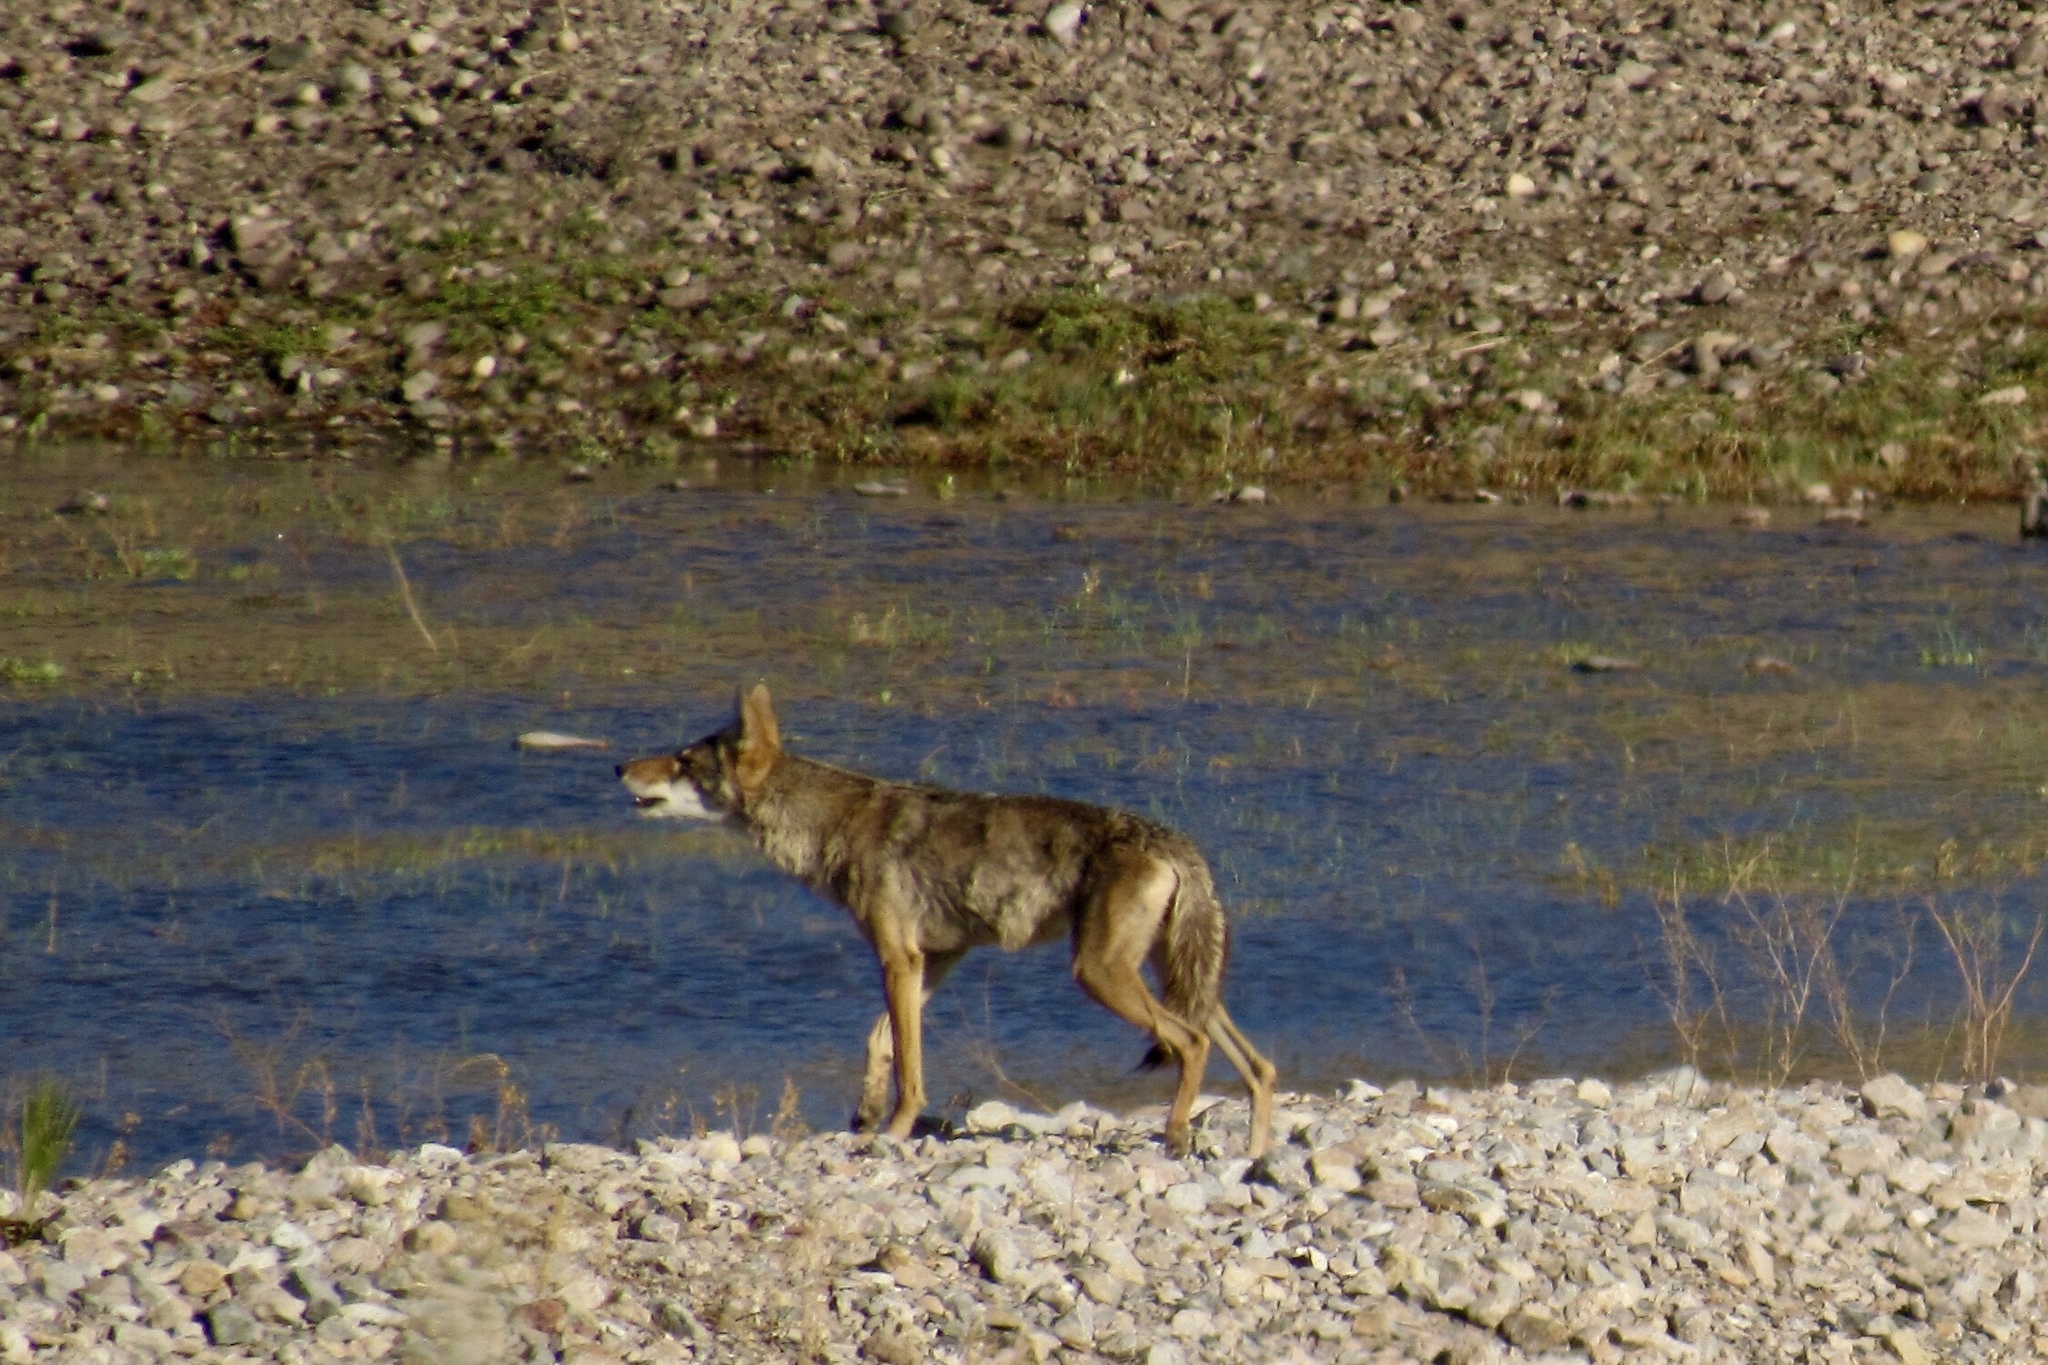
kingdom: Animalia
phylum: Chordata
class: Mammalia
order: Carnivora
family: Canidae
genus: Canis
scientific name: Canis latrans
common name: Coyote
